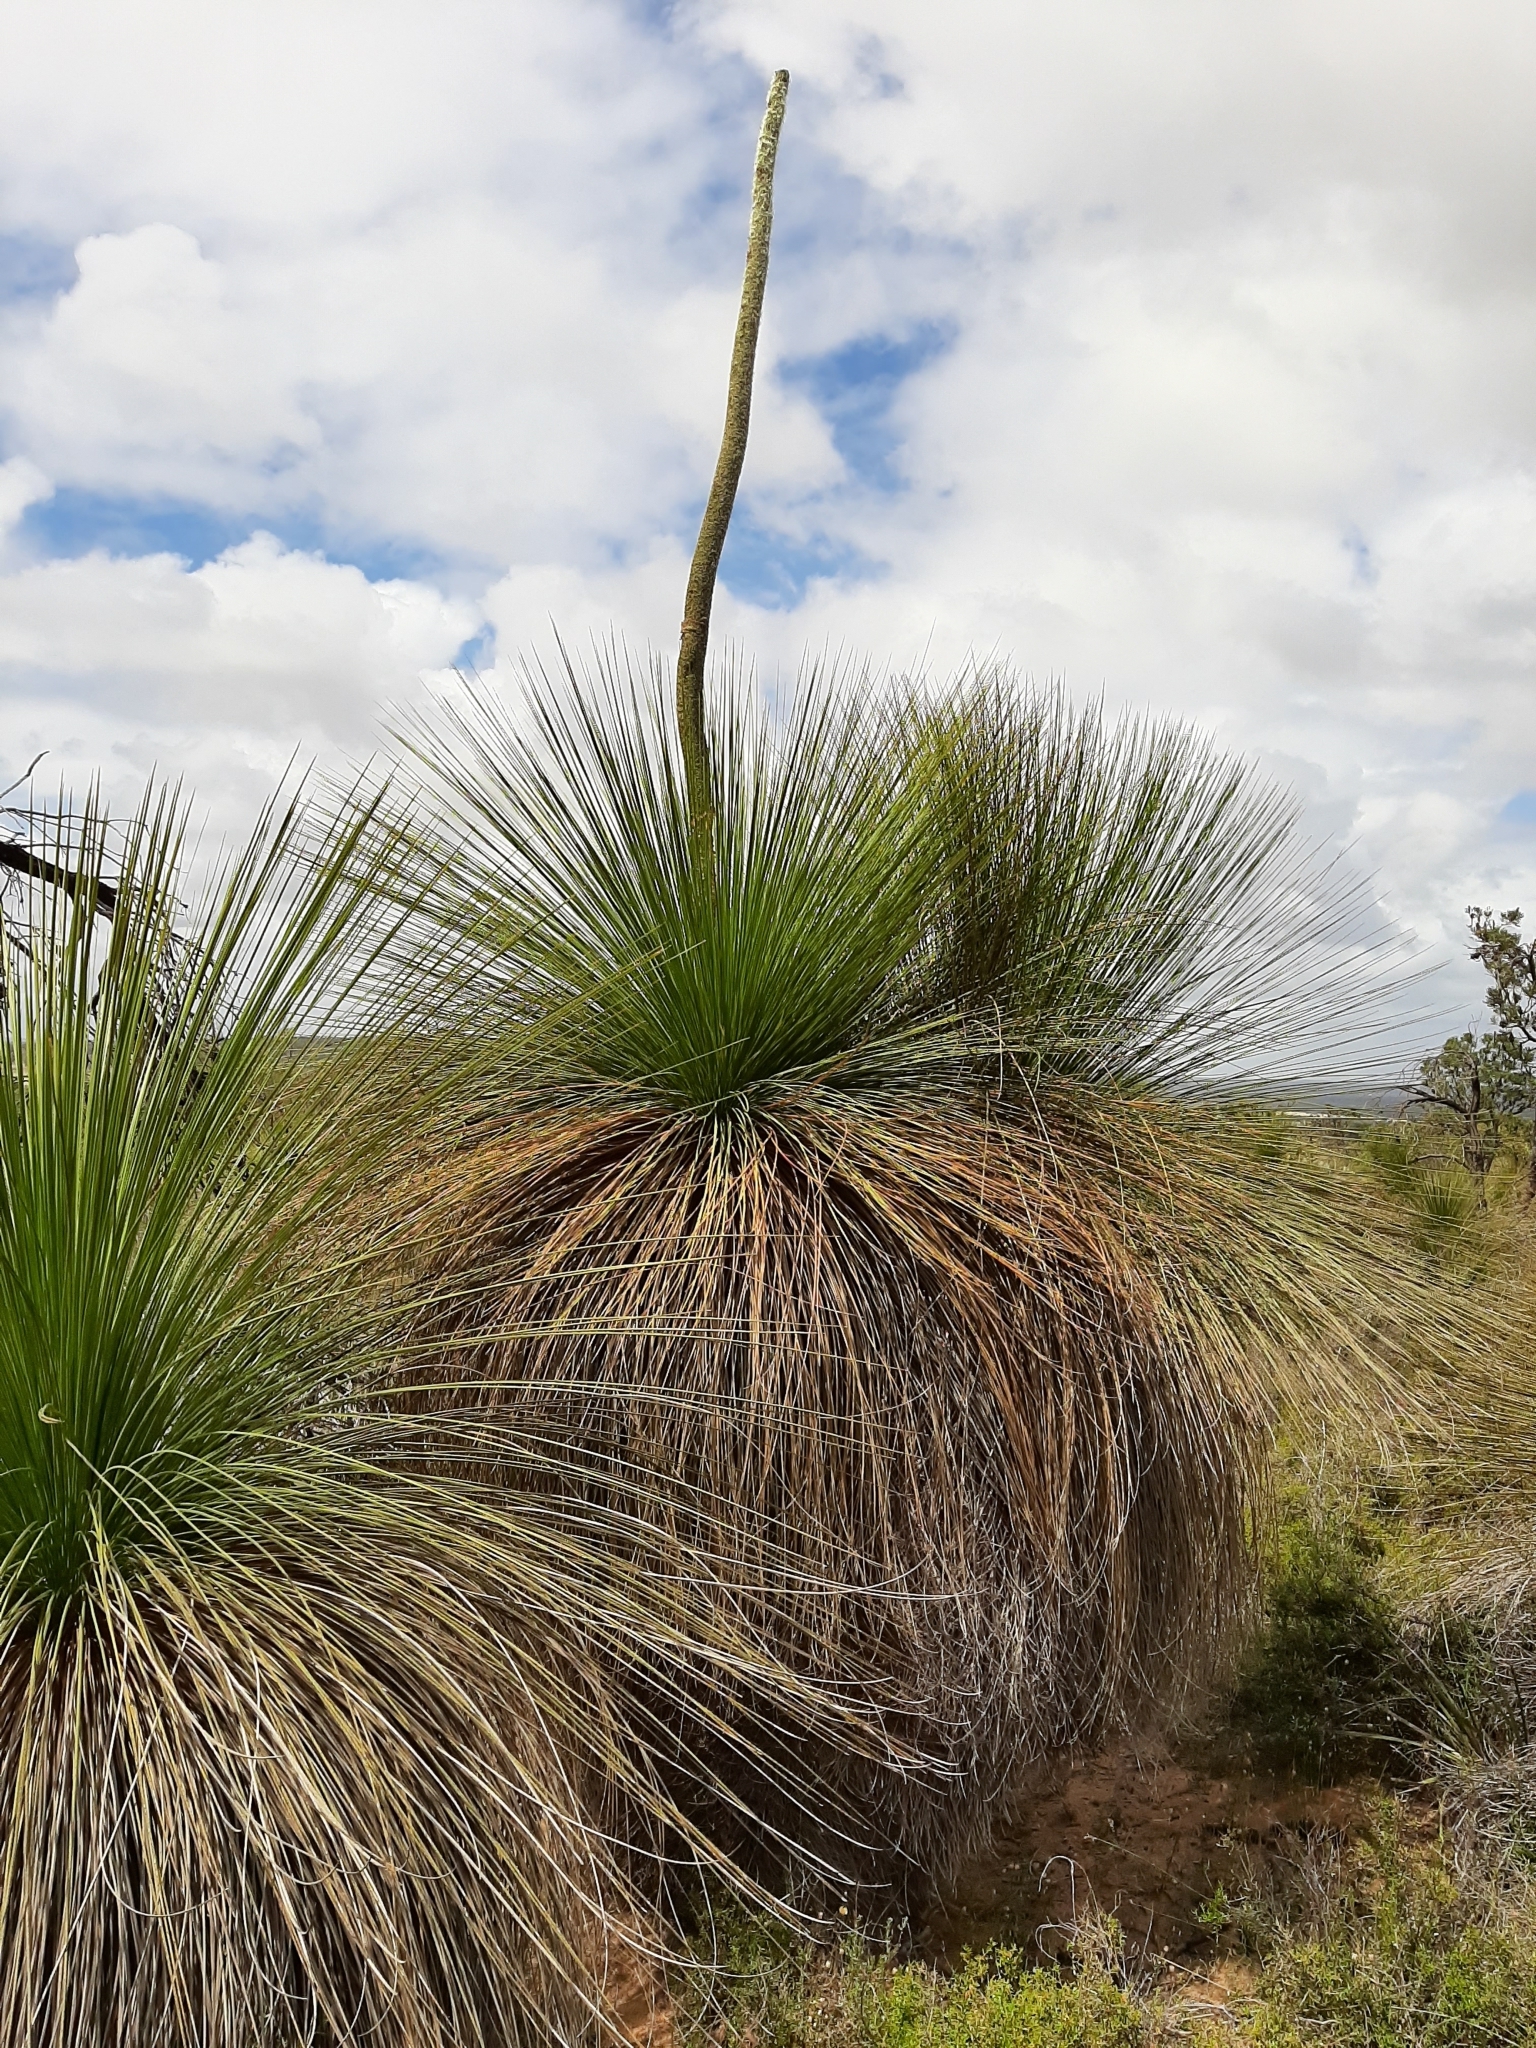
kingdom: Plantae
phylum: Tracheophyta
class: Liliopsida
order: Asparagales
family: Asphodelaceae
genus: Xanthorrhoea
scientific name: Xanthorrhoea preissii
